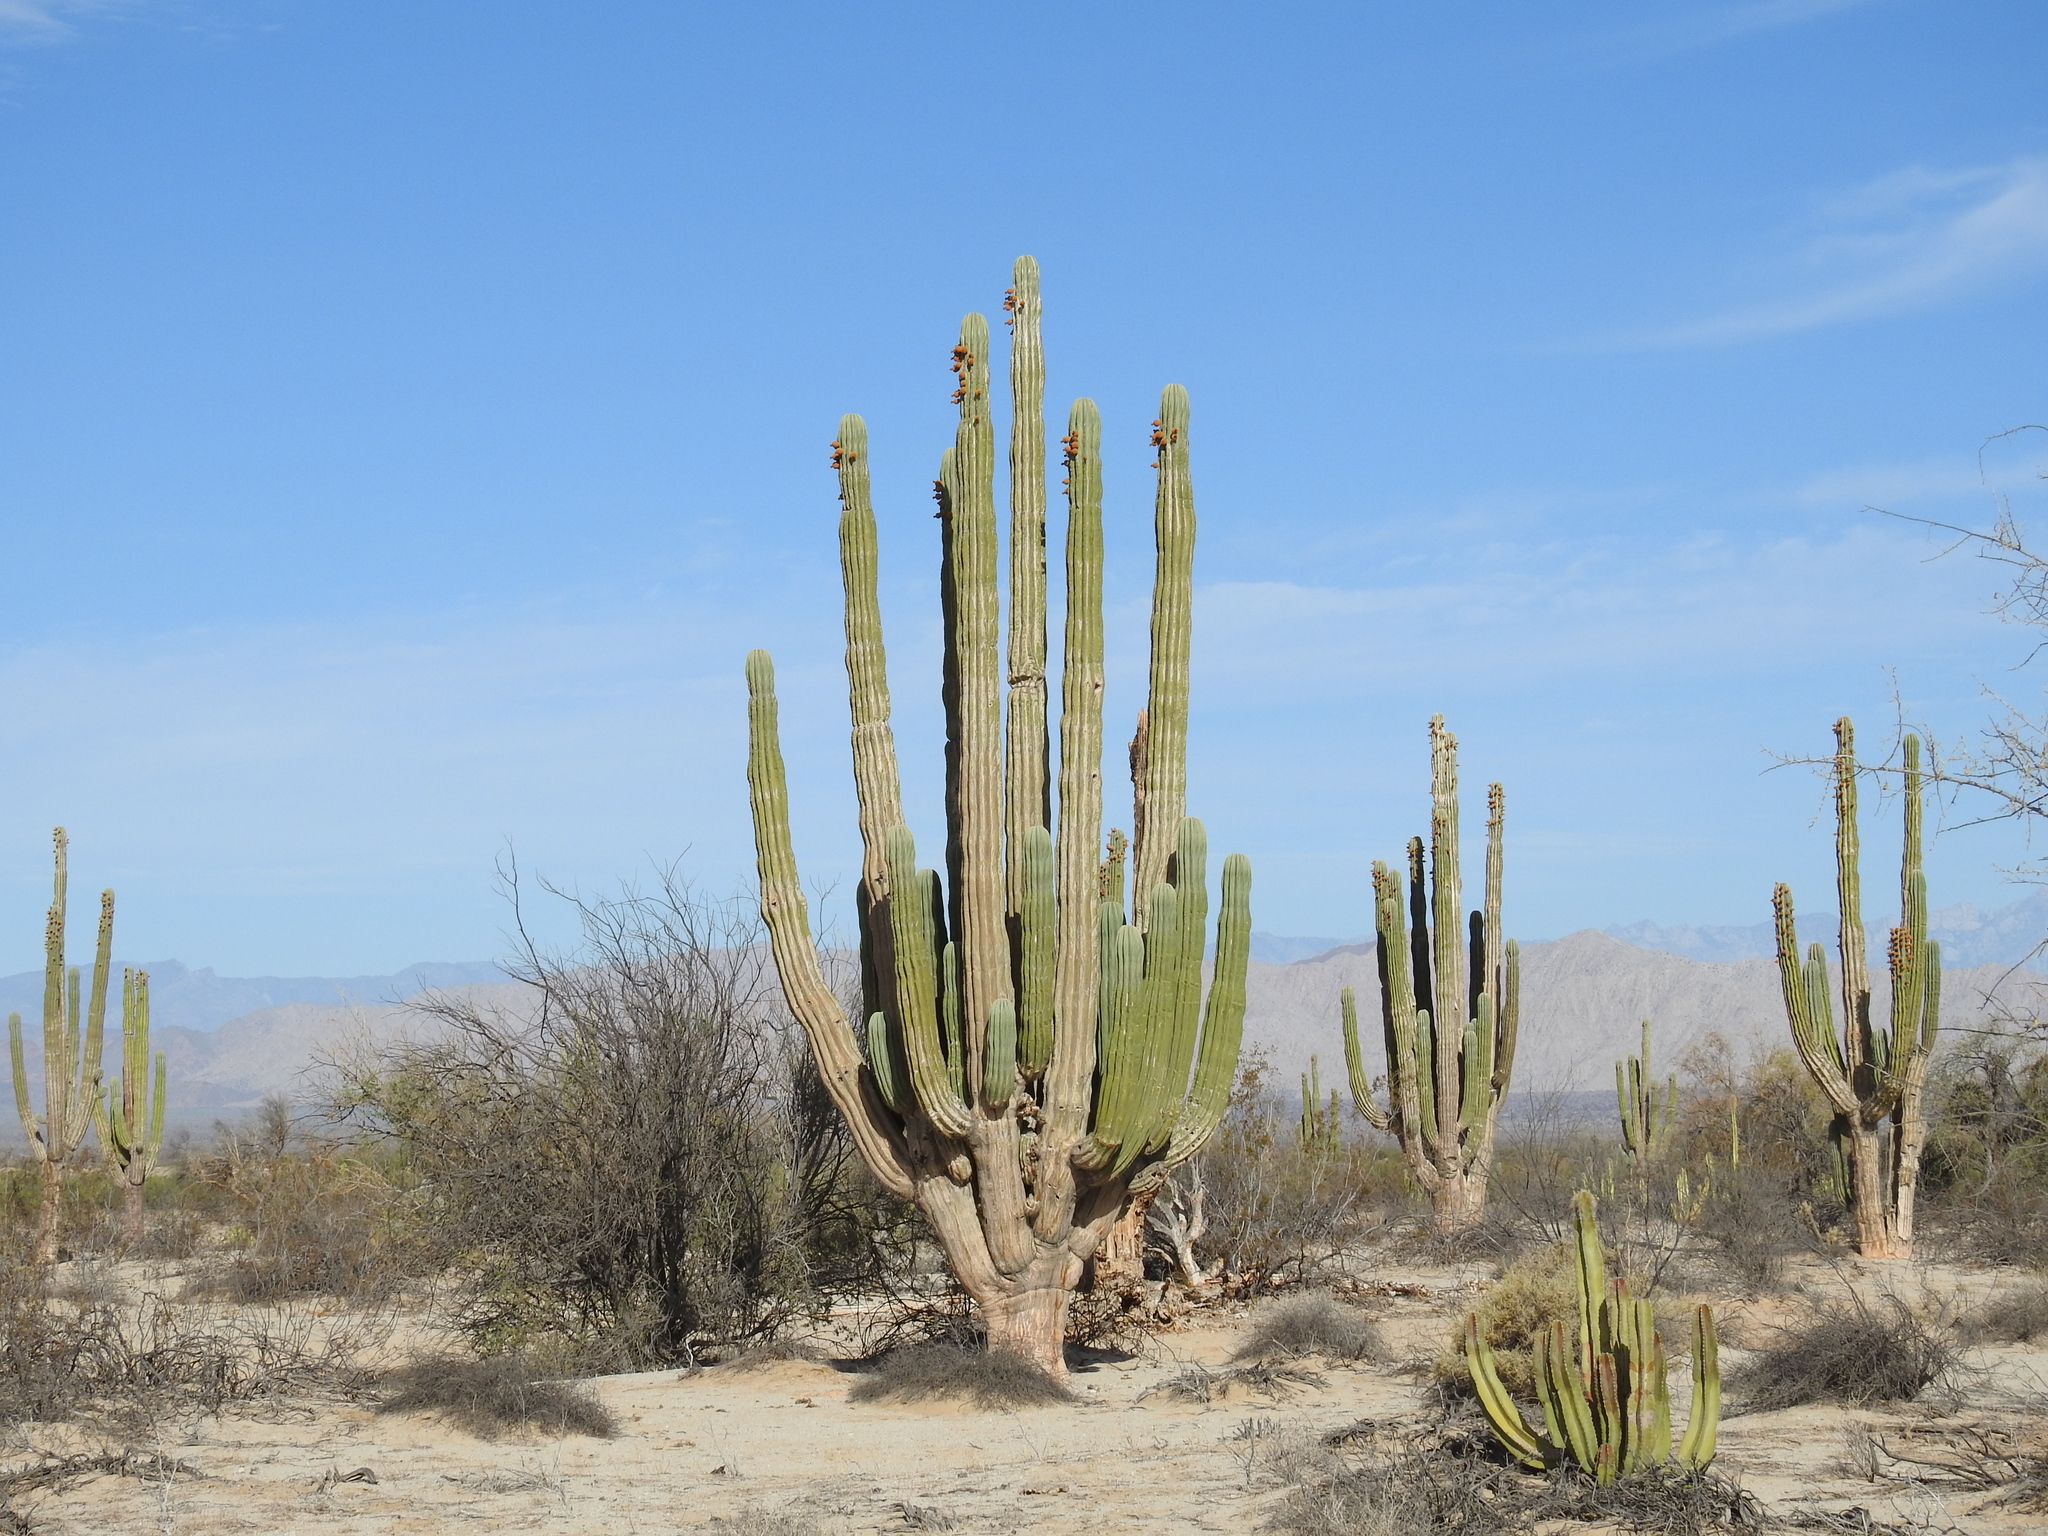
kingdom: Plantae
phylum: Tracheophyta
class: Magnoliopsida
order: Caryophyllales
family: Cactaceae
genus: Pachycereus
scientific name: Pachycereus pringlei
